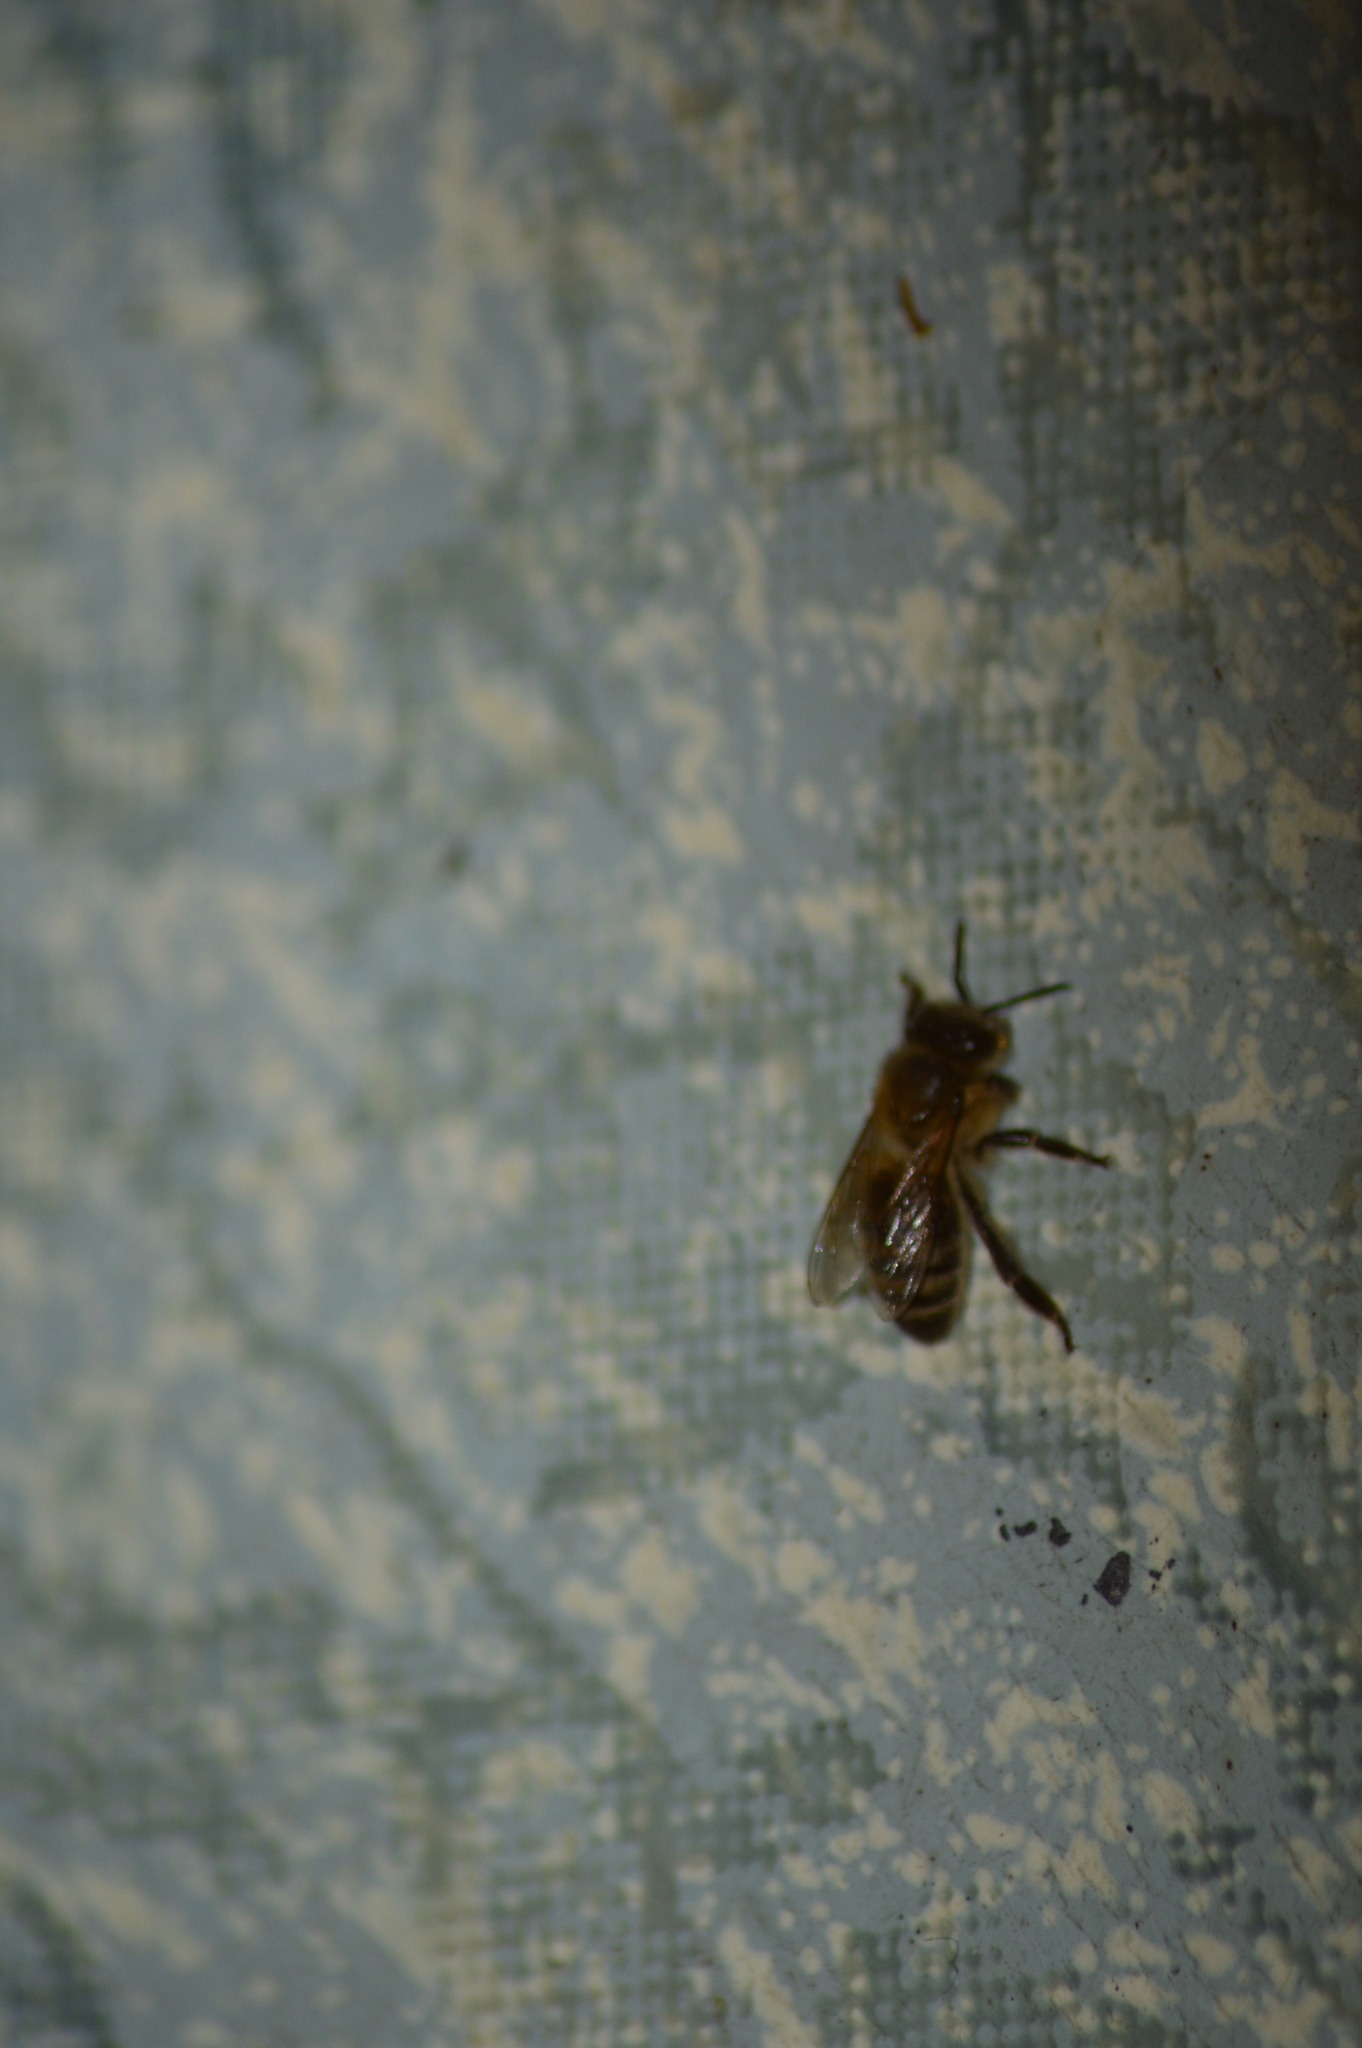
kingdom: Animalia
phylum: Arthropoda
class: Insecta
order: Hymenoptera
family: Apidae
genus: Apis
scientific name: Apis mellifera
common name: Honey bee
